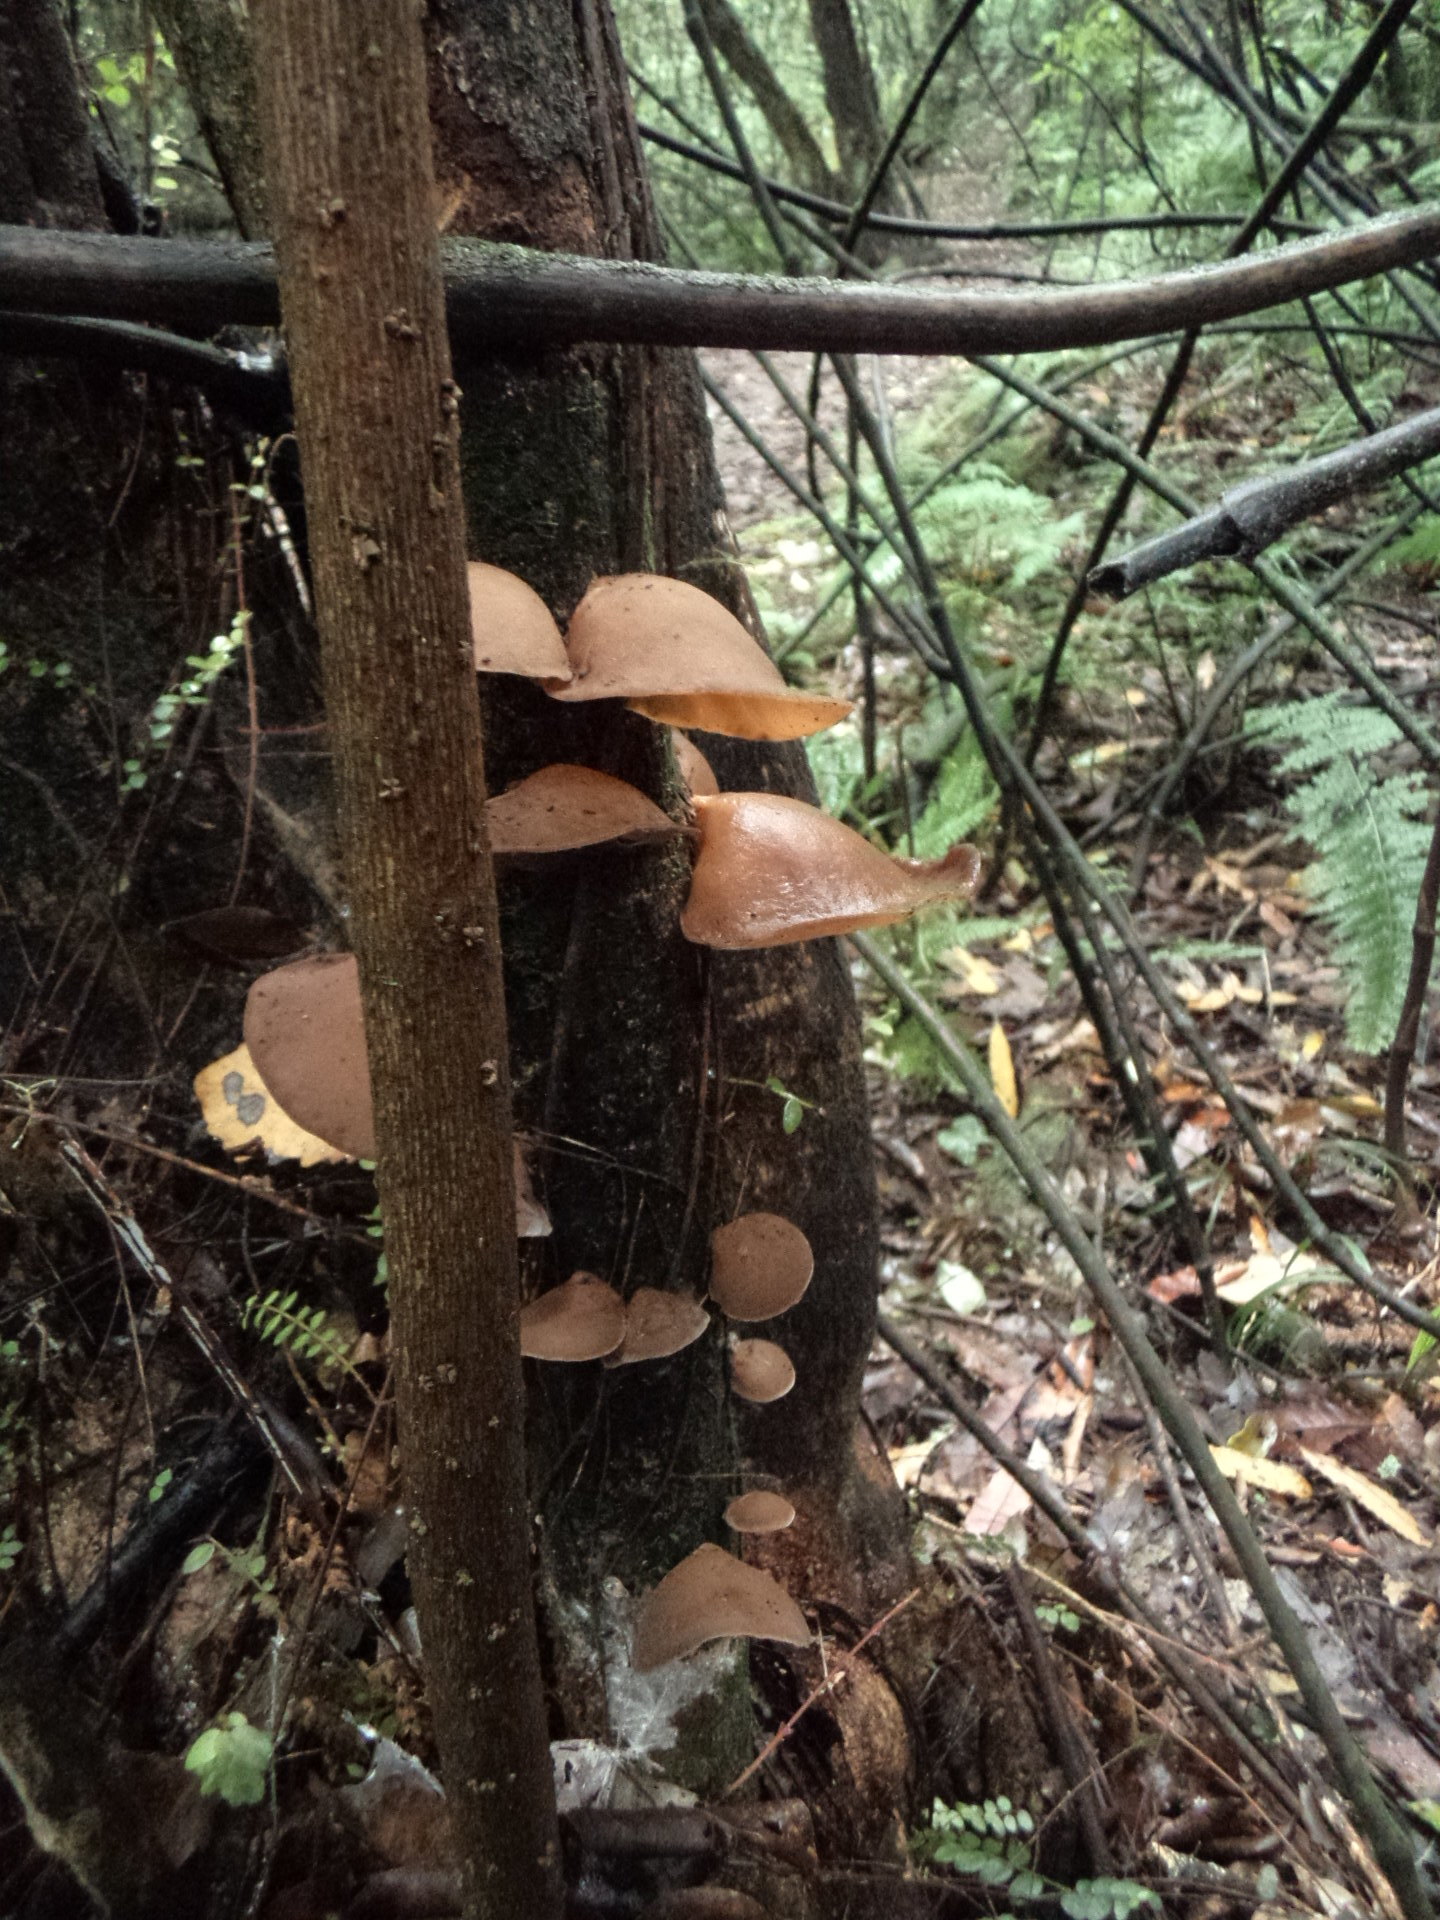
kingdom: Fungi
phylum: Basidiomycota
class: Agaricomycetes
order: Auriculariales
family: Auriculariaceae
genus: Auricularia
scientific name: Auricularia cornea
